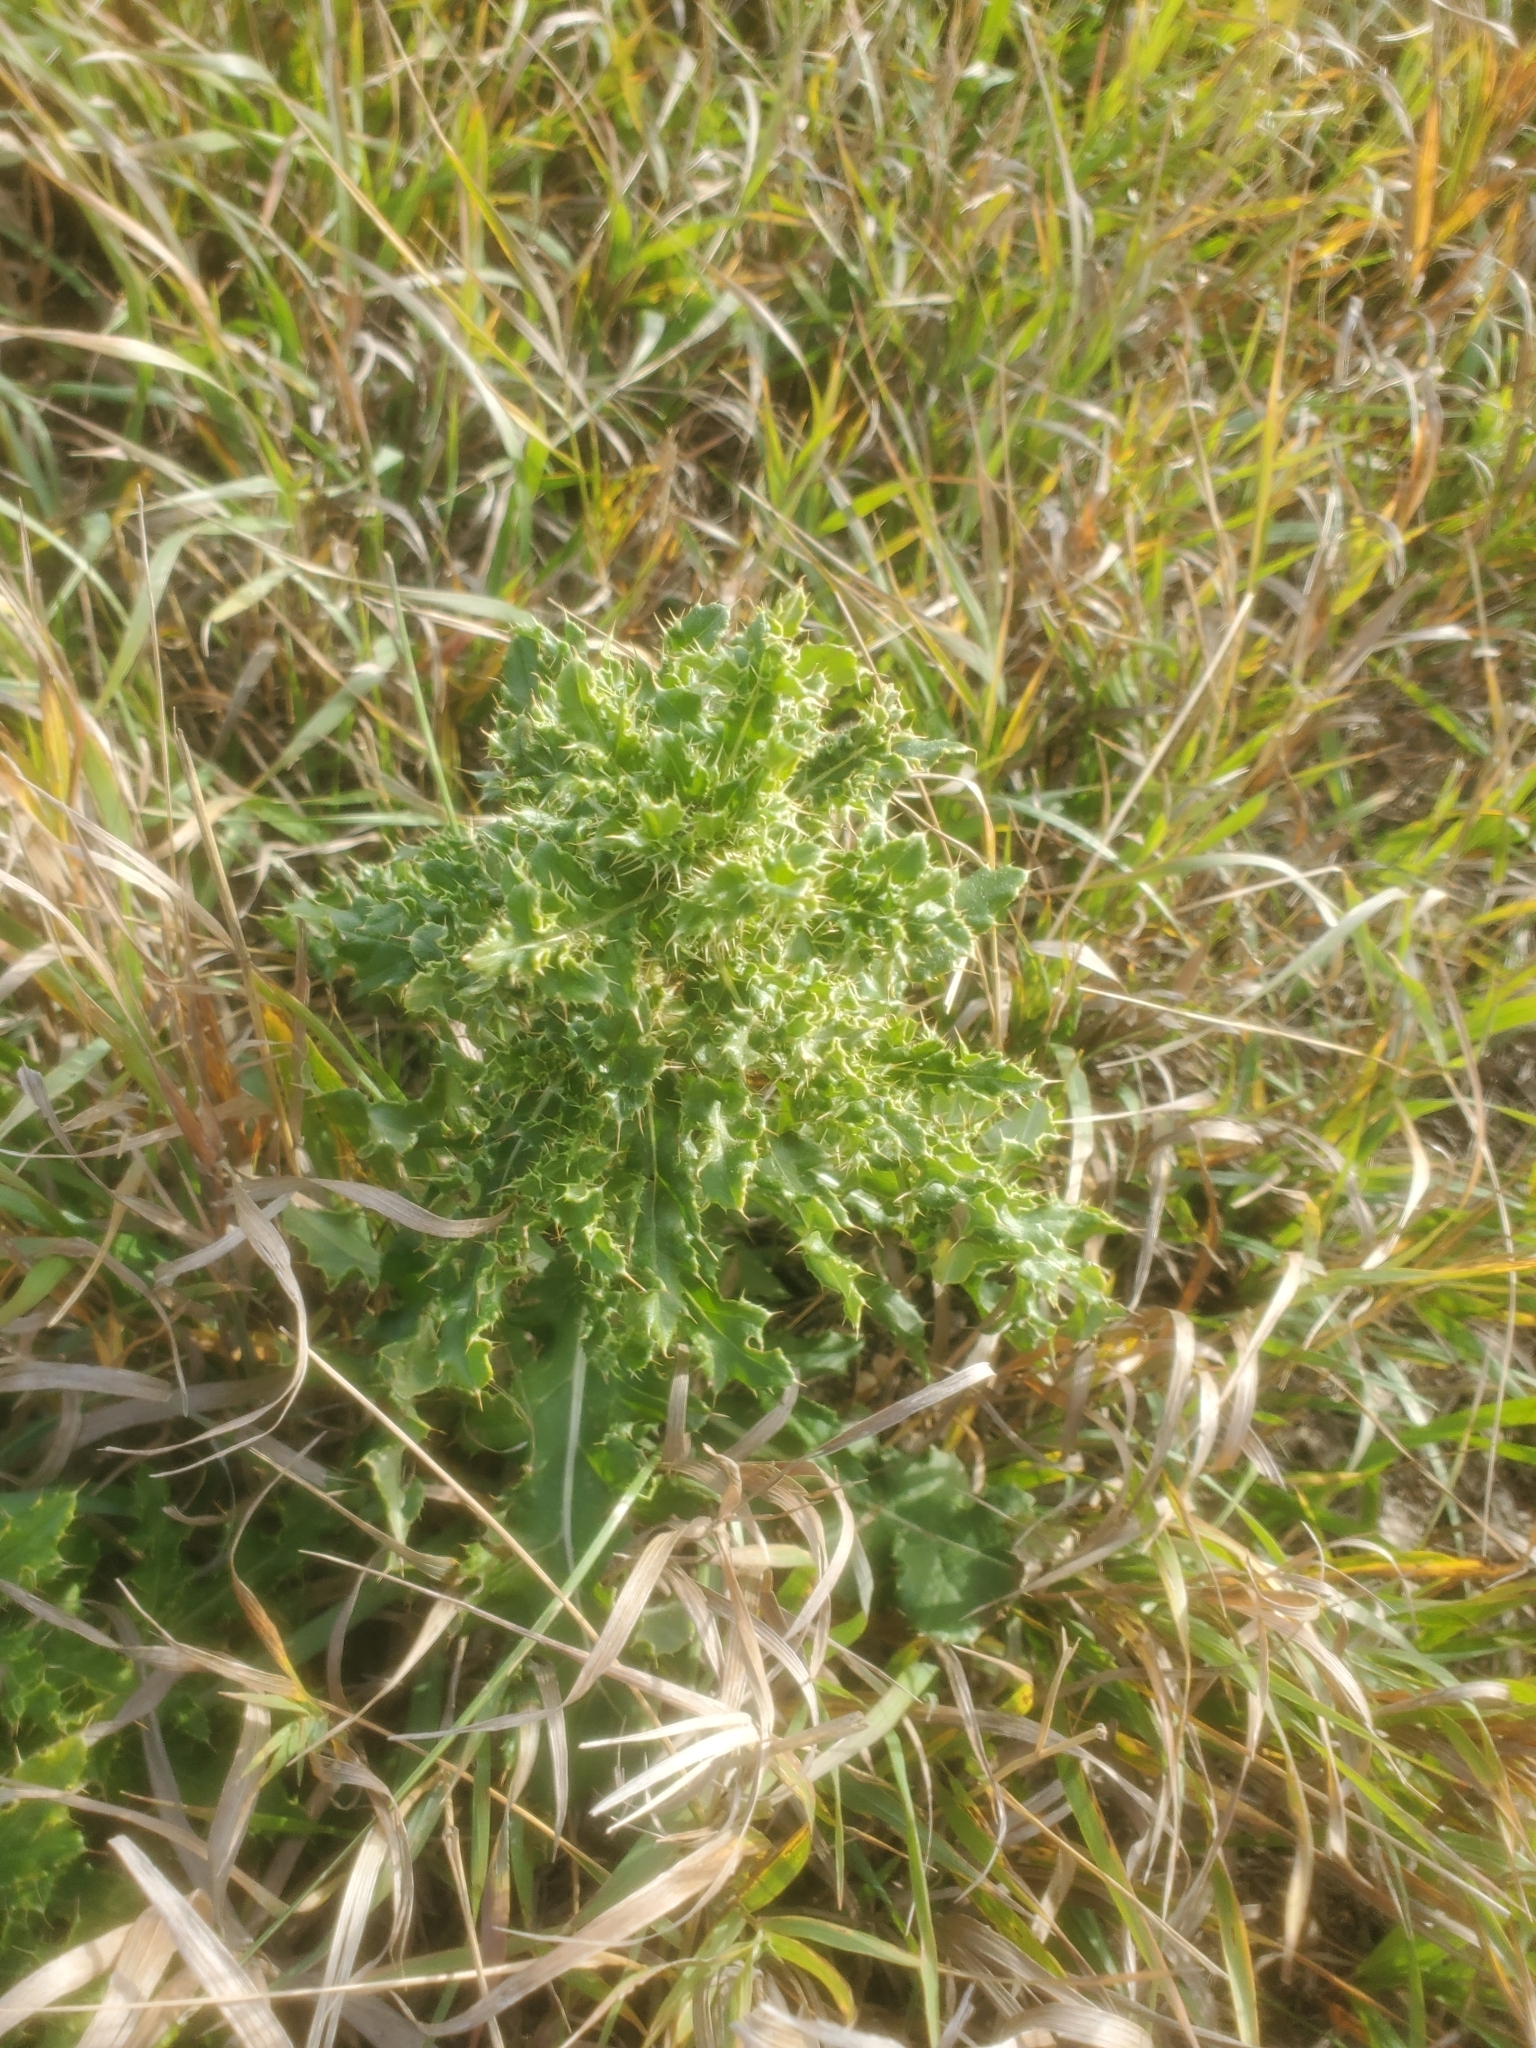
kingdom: Plantae
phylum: Tracheophyta
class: Magnoliopsida
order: Asterales
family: Asteraceae
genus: Cirsium
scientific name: Cirsium arvense
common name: Creeping thistle
